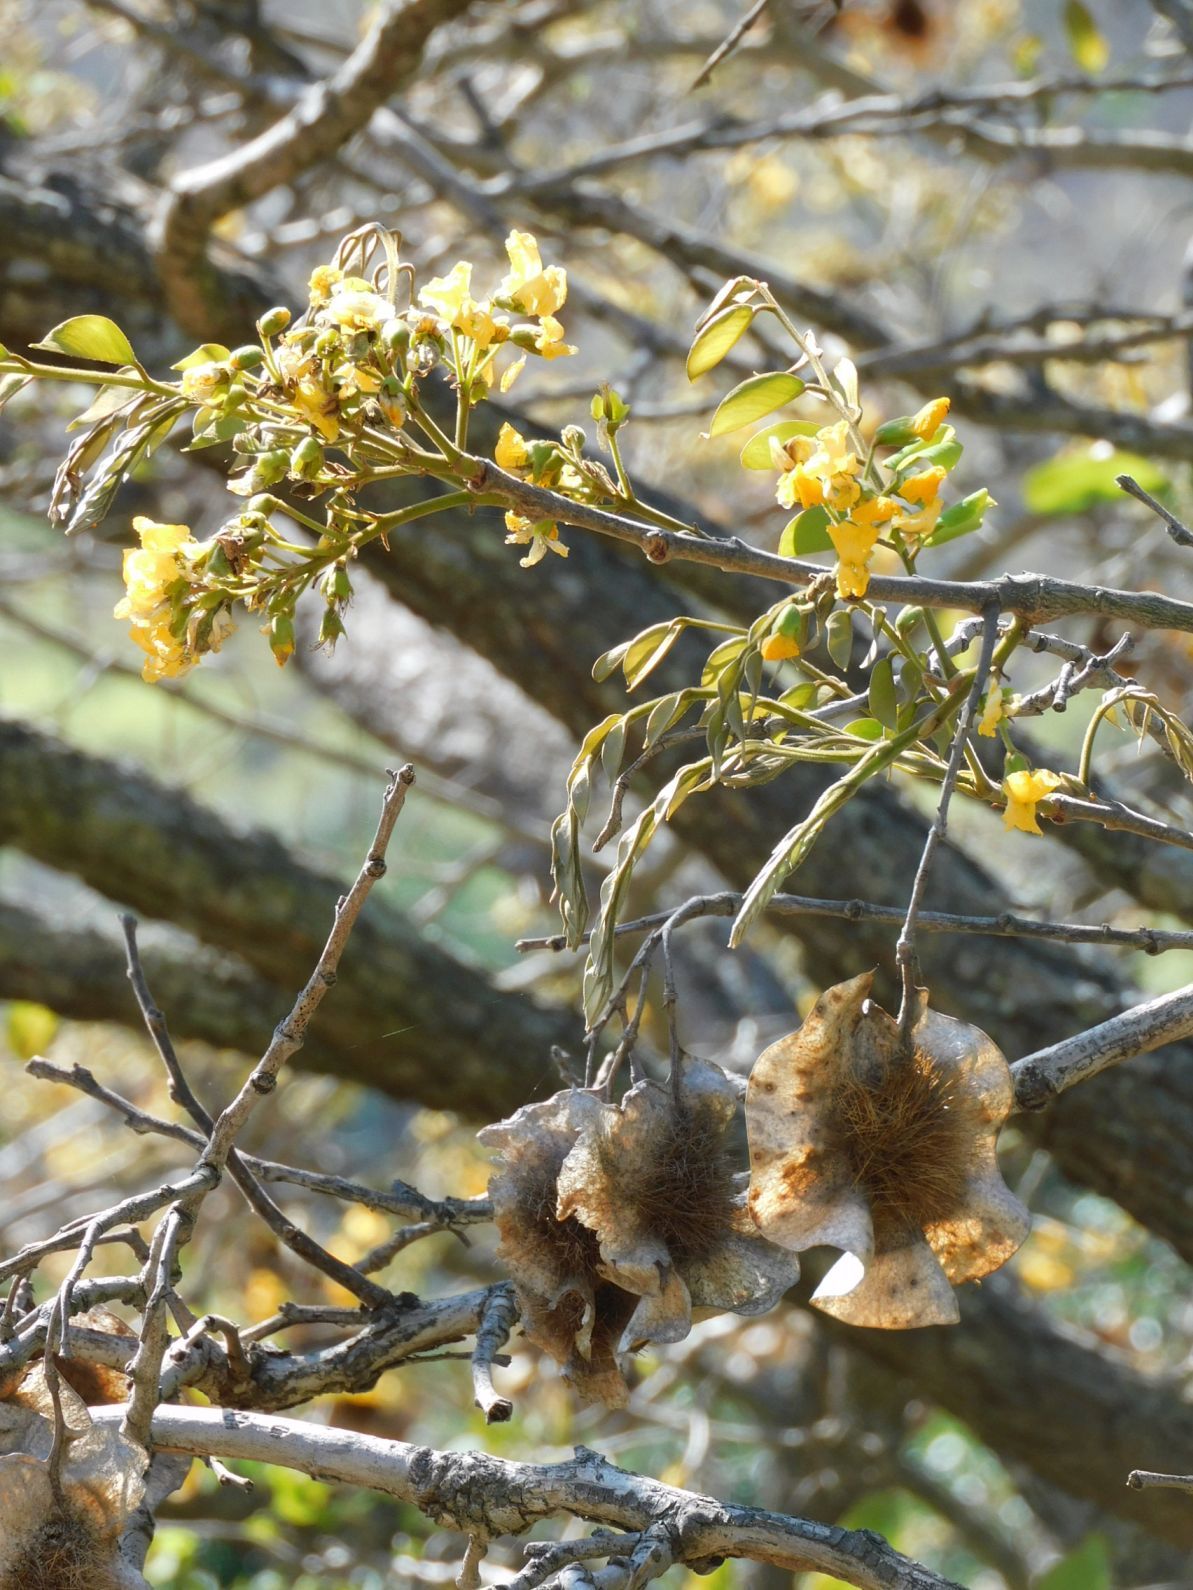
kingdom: Plantae
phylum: Tracheophyta
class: Magnoliopsida
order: Fabales
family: Fabaceae
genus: Pterocarpus
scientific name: Pterocarpus angolensis
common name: Bloodwood tree
